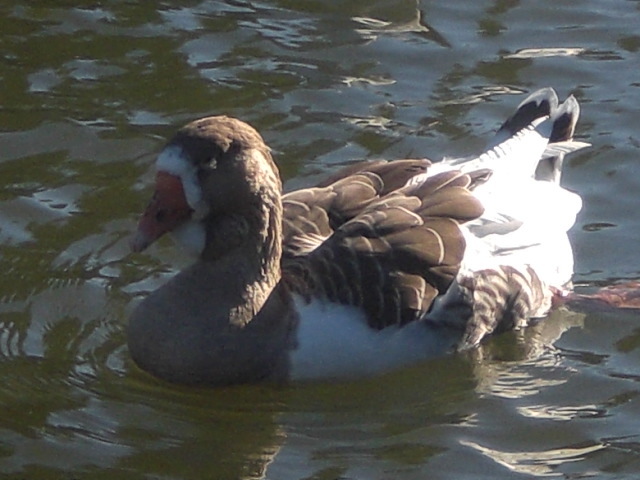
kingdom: Animalia
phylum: Chordata
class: Aves
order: Anseriformes
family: Anatidae
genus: Anser
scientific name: Anser anser
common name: Greylag goose
